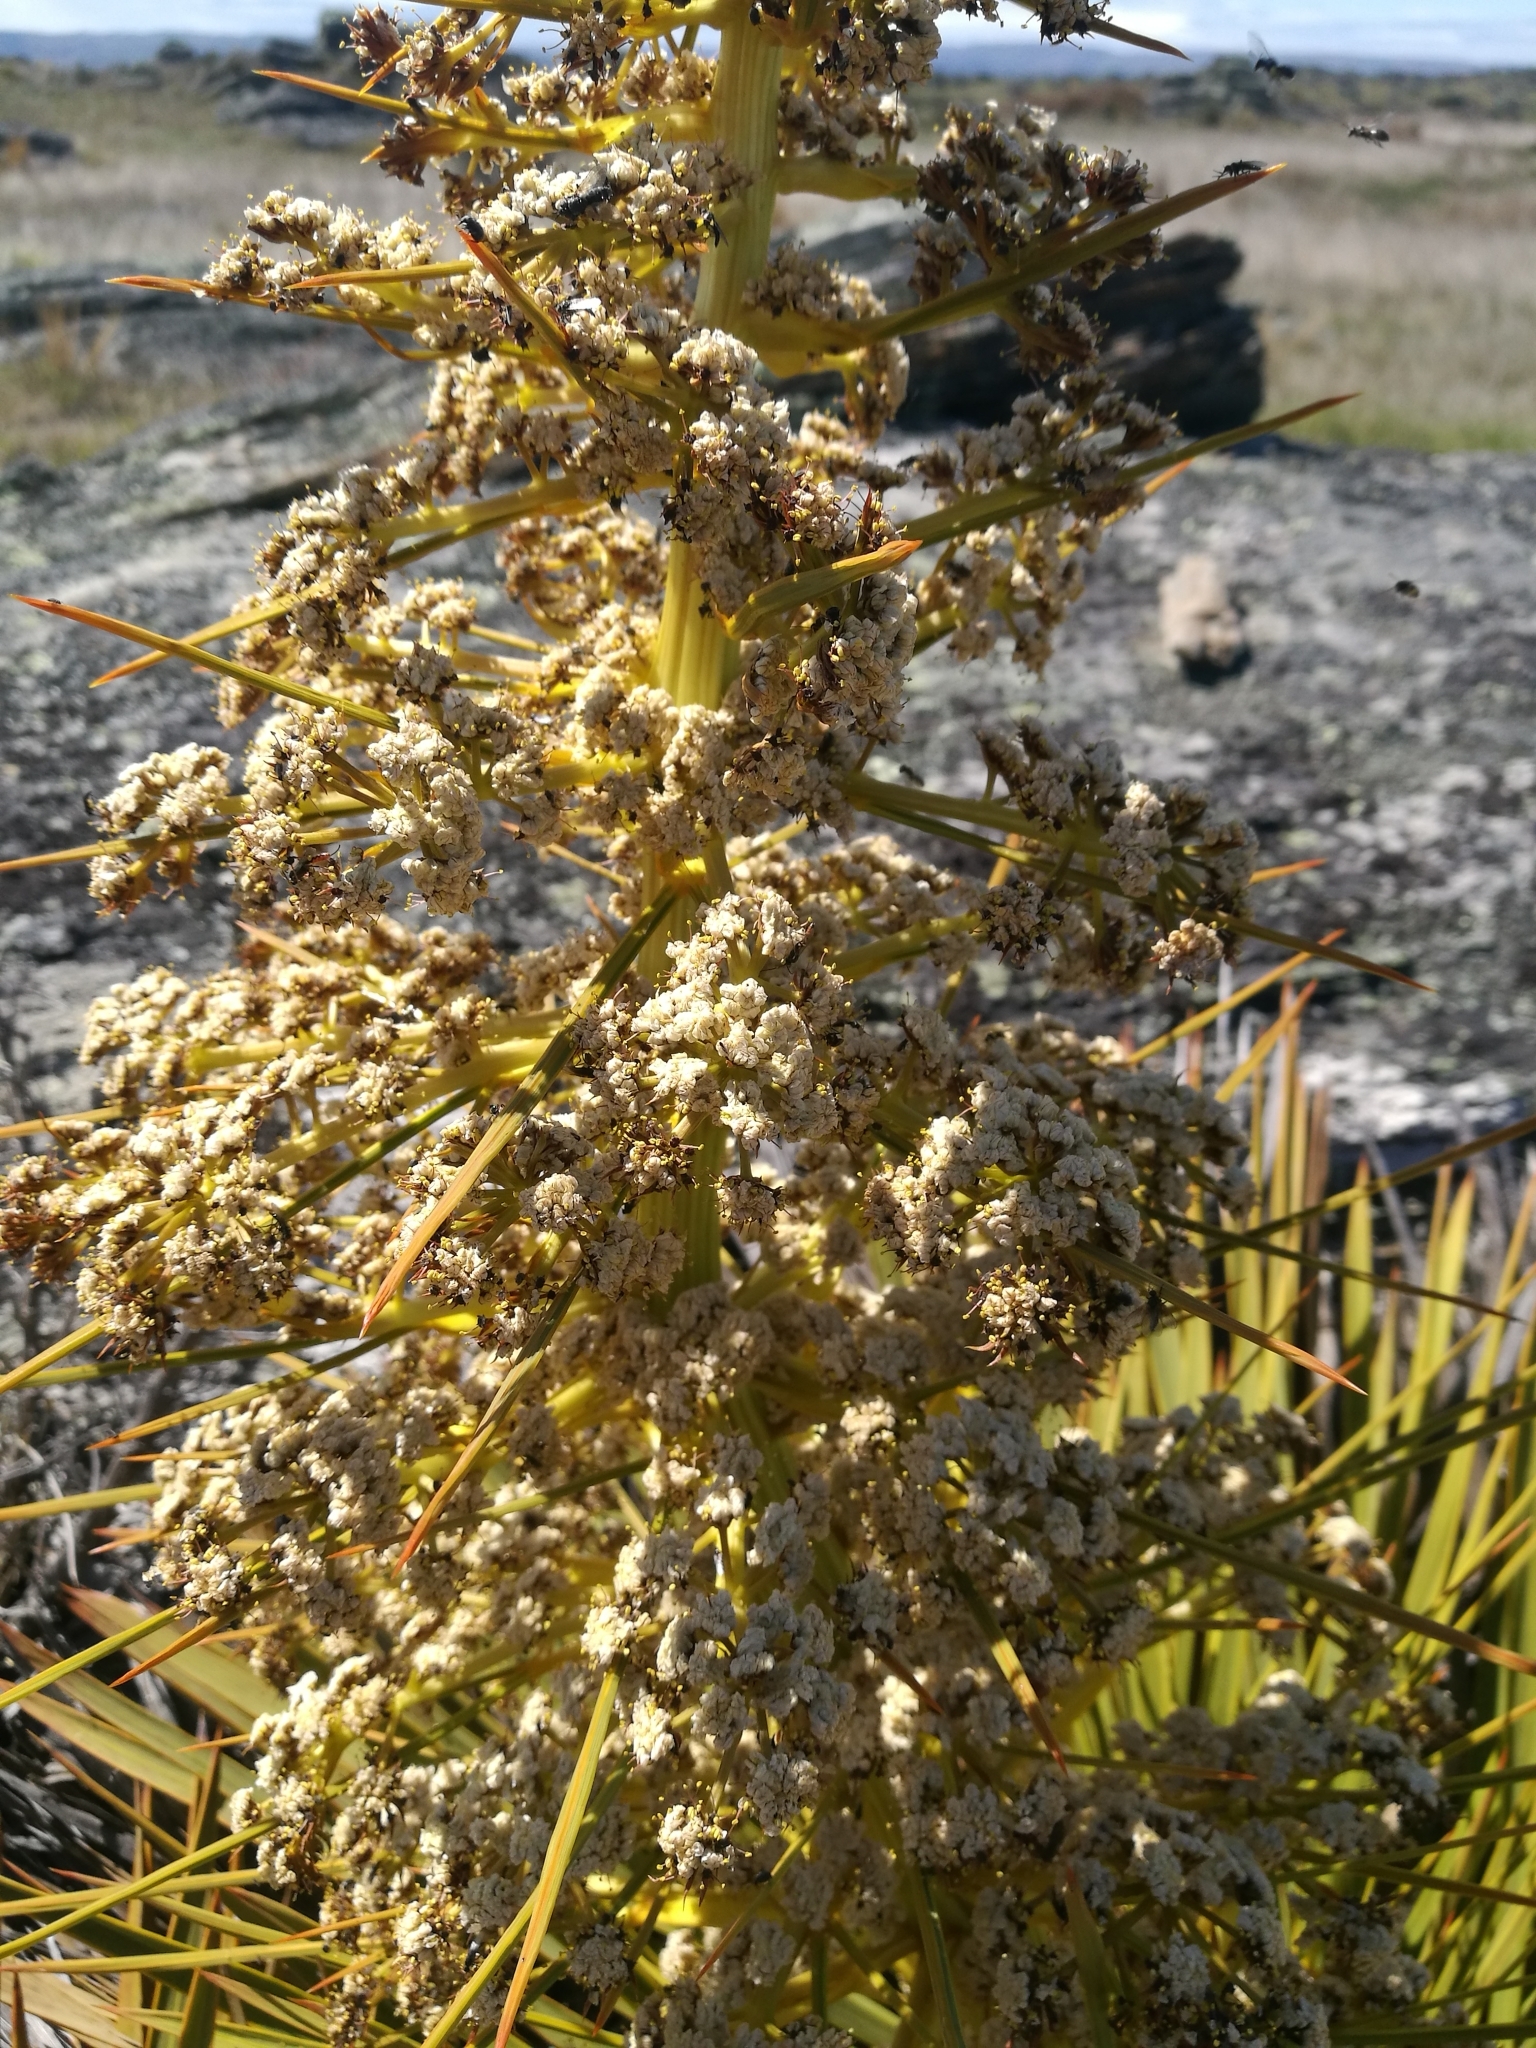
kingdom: Plantae
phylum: Tracheophyta
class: Magnoliopsida
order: Apiales
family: Apiaceae
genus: Aciphylla
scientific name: Aciphylla aurea
